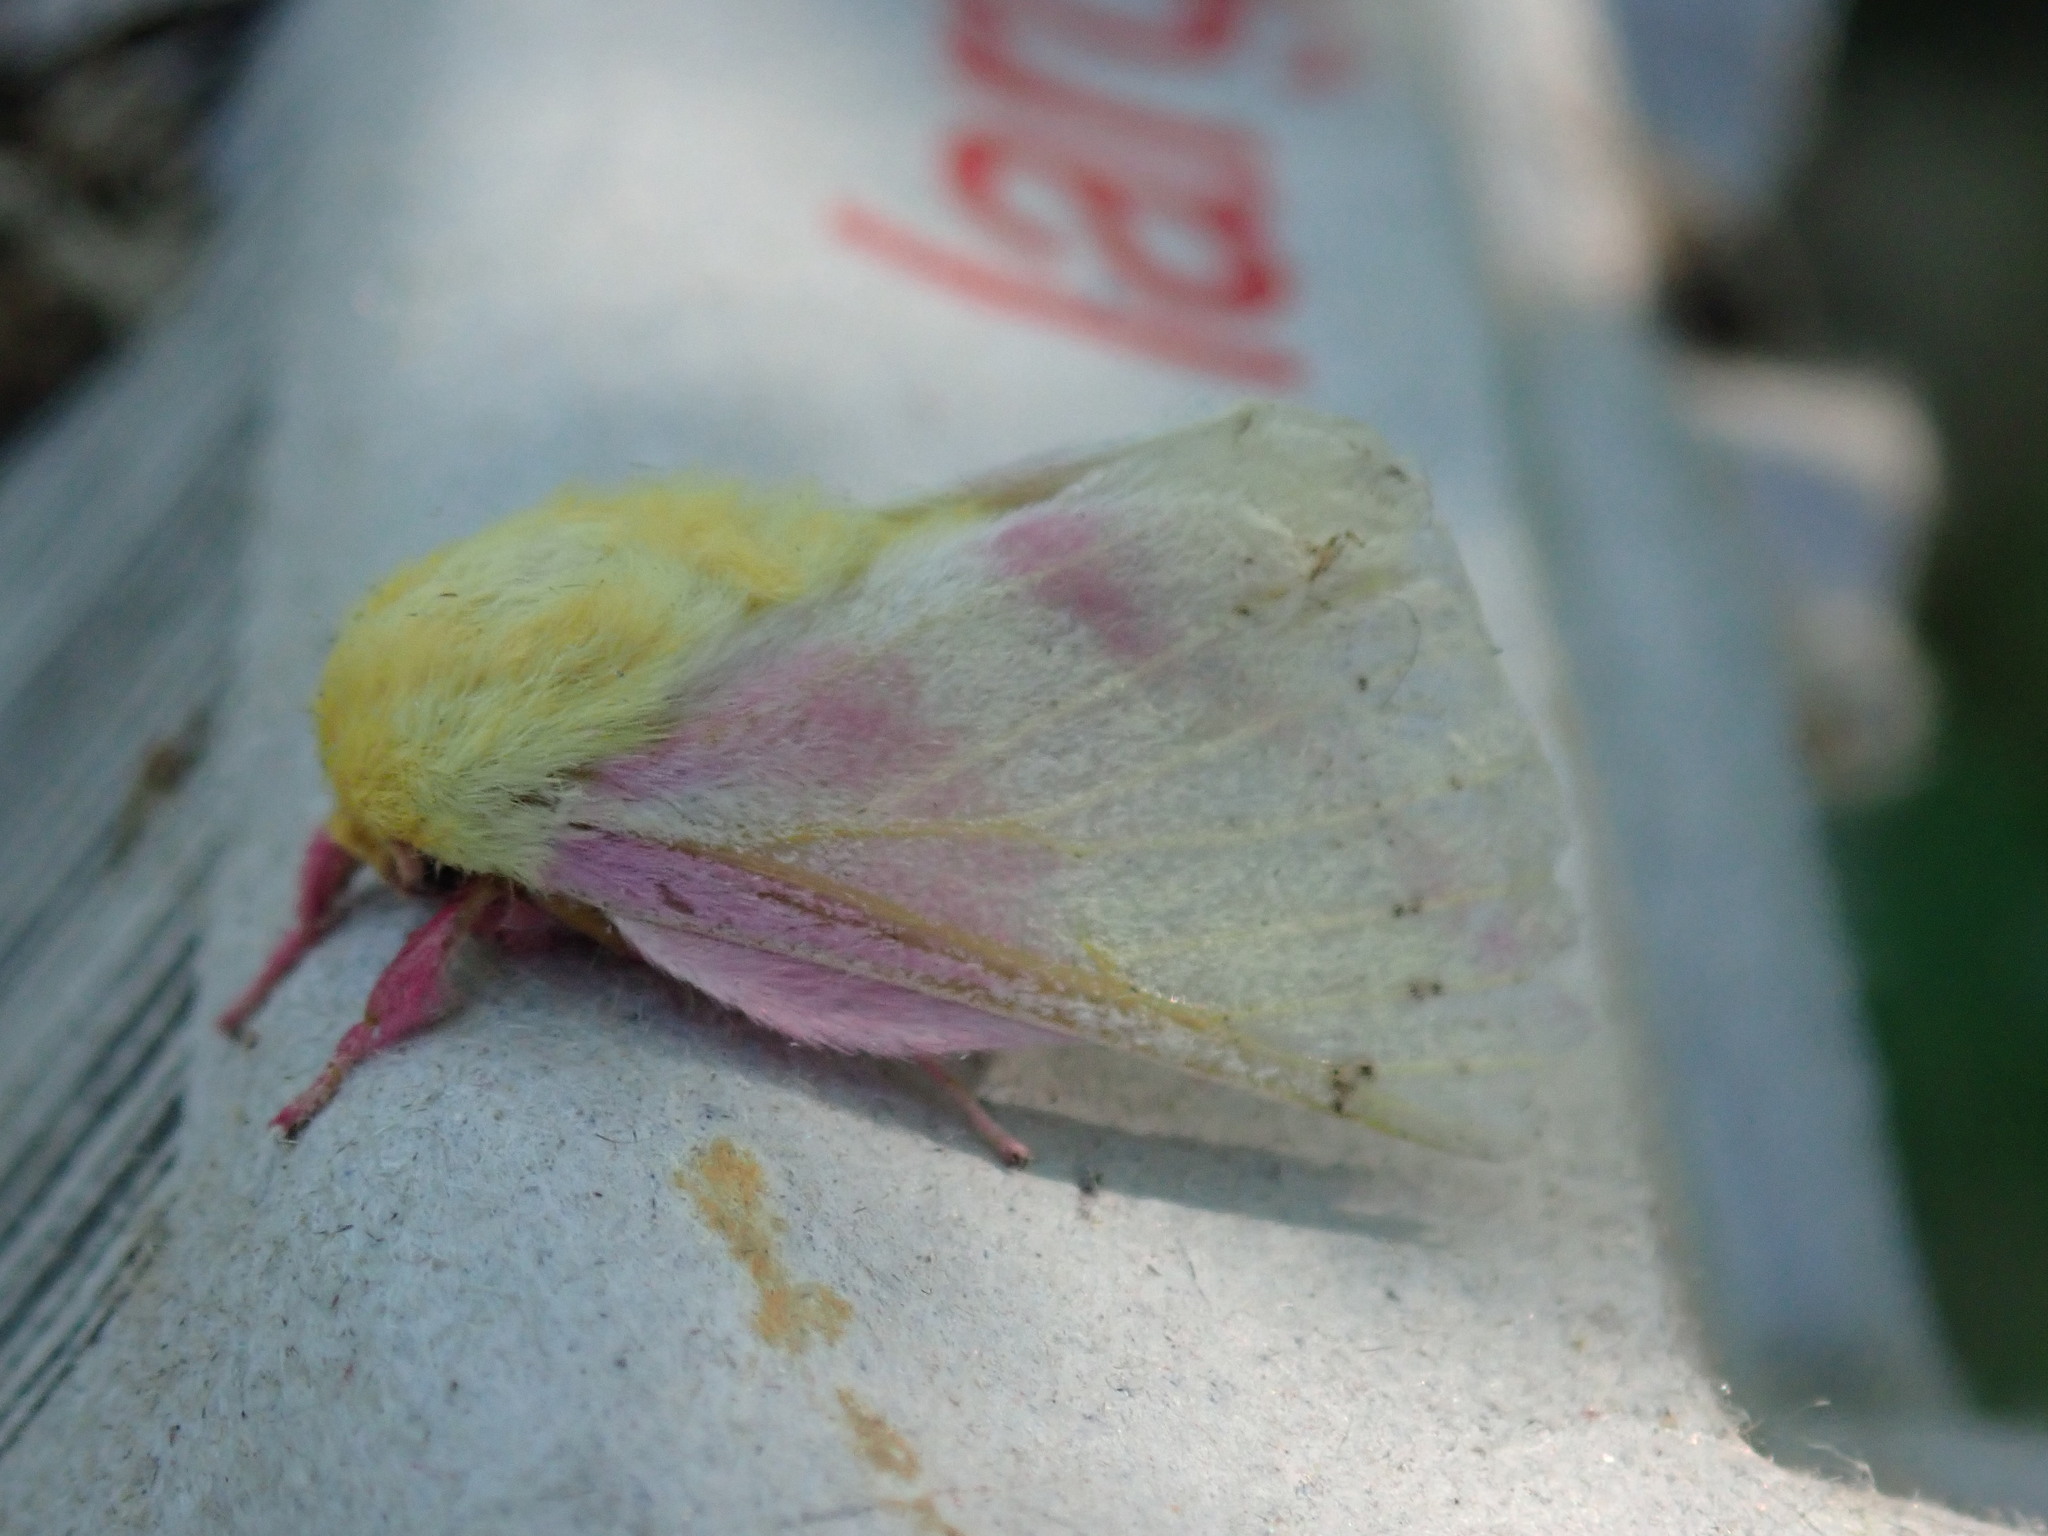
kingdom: Animalia
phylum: Arthropoda
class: Insecta
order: Lepidoptera
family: Saturniidae
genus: Dryocampa
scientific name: Dryocampa rubicunda
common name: Rosy maple moth
